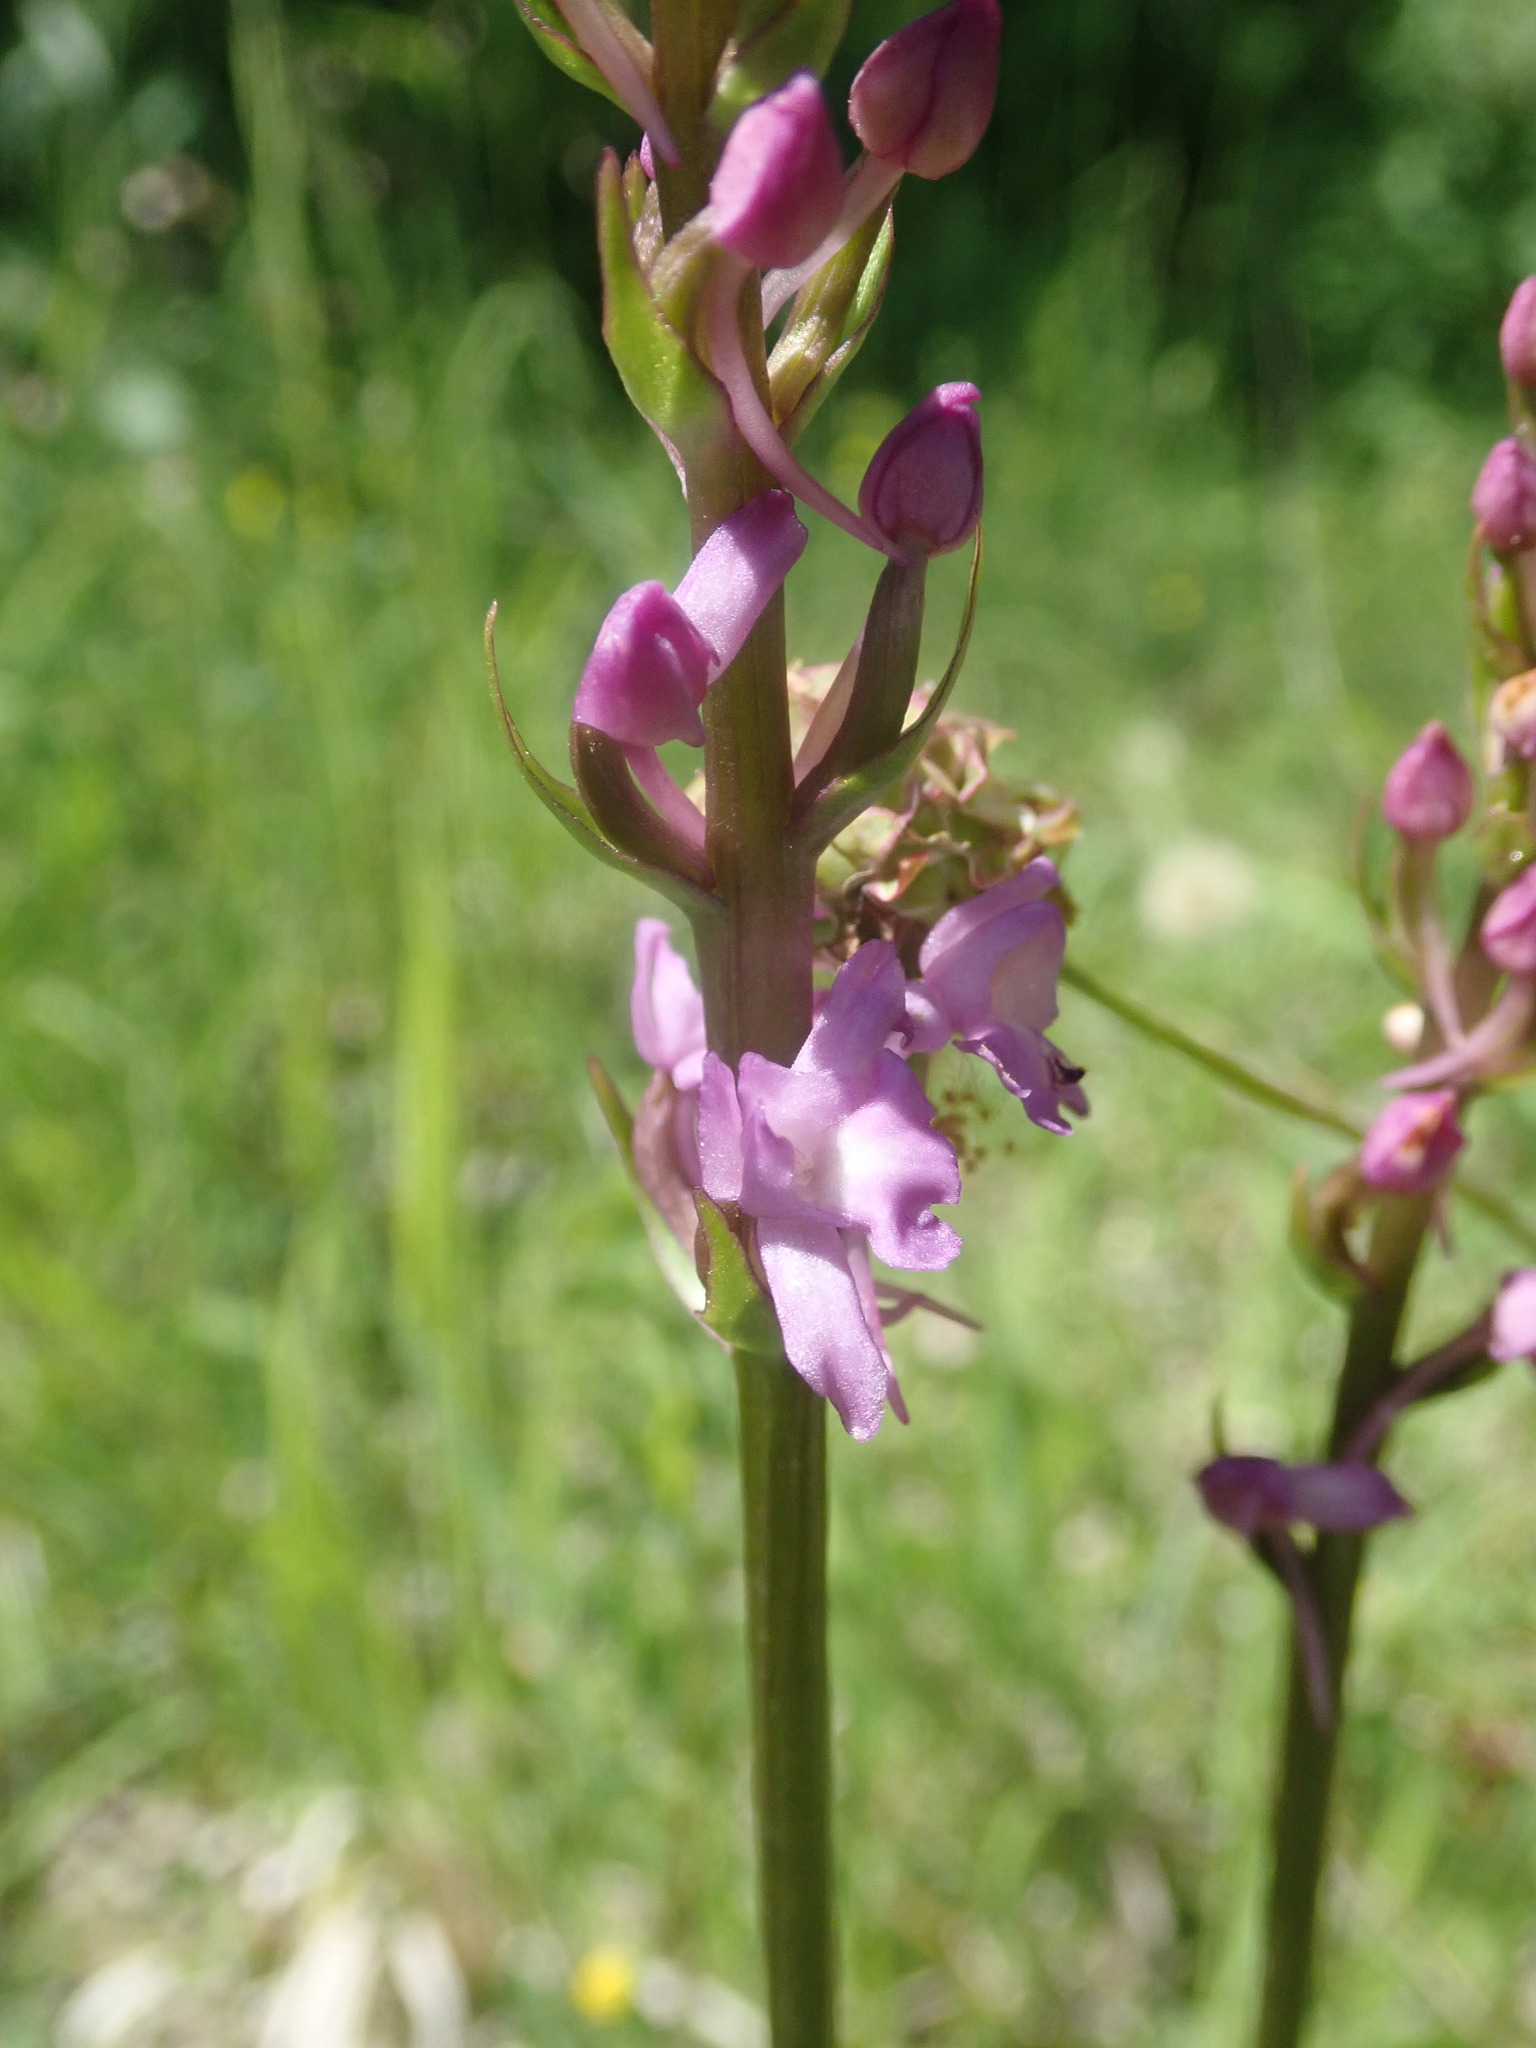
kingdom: Plantae
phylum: Tracheophyta
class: Liliopsida
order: Asparagales
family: Orchidaceae
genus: Gymnadenia
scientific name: Gymnadenia conopsea
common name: Fragrant orchid
